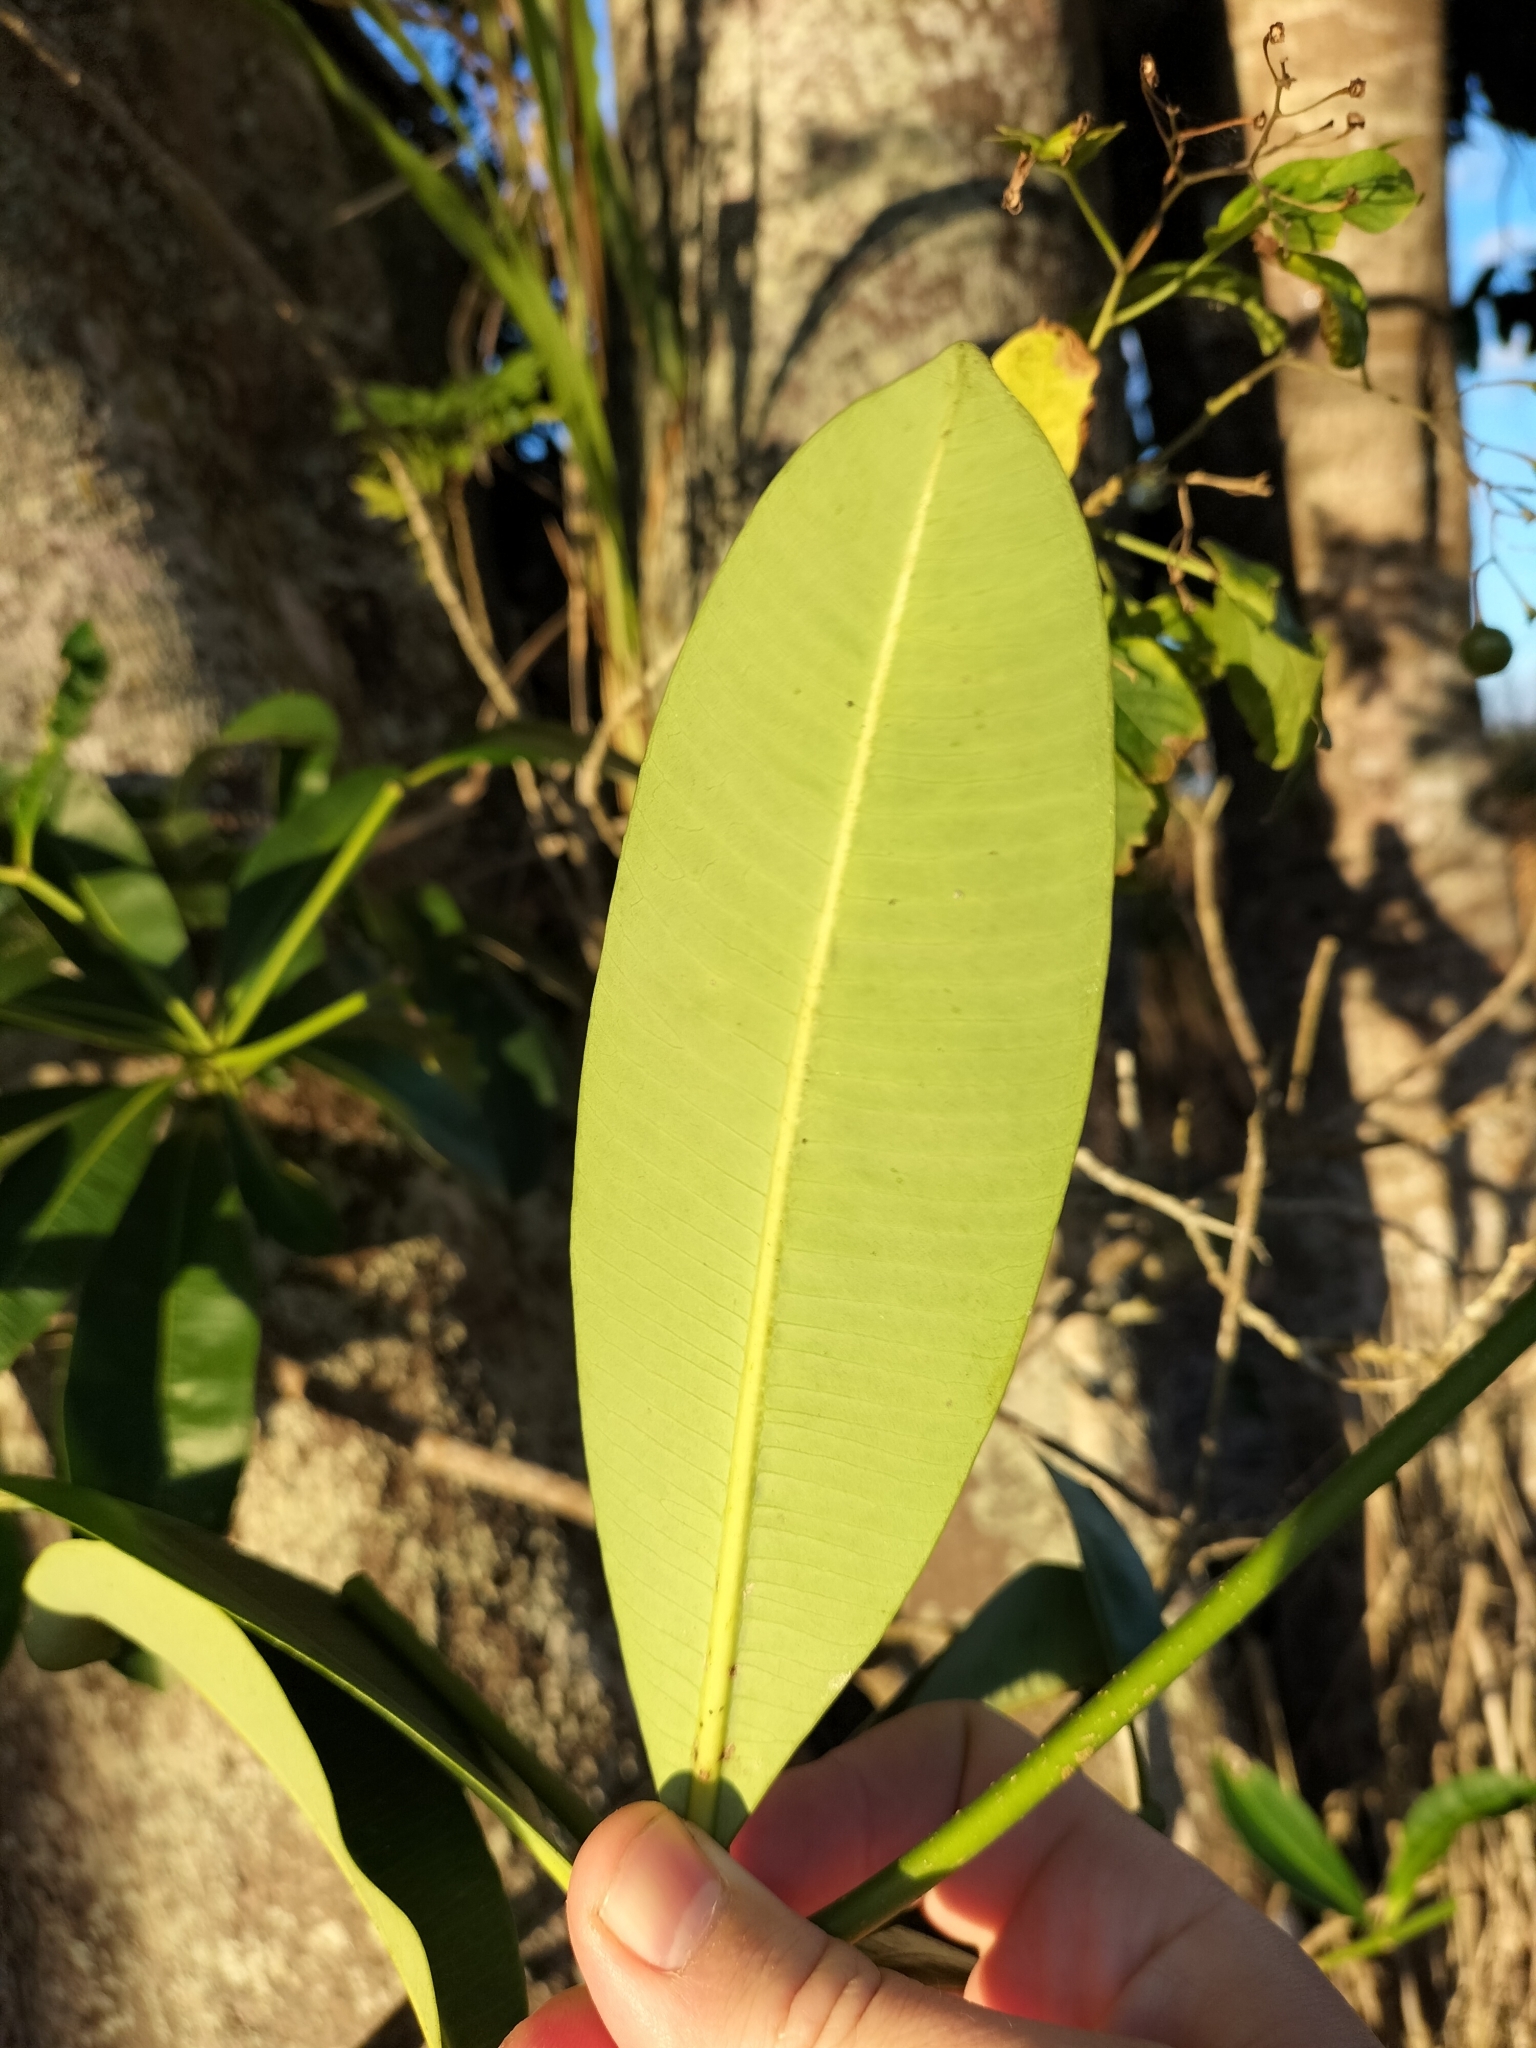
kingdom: Plantae
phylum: Tracheophyta
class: Magnoliopsida
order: Gentianales
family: Apocynaceae
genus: Alstonia
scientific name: Alstonia scholaris
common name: White cheesewood
